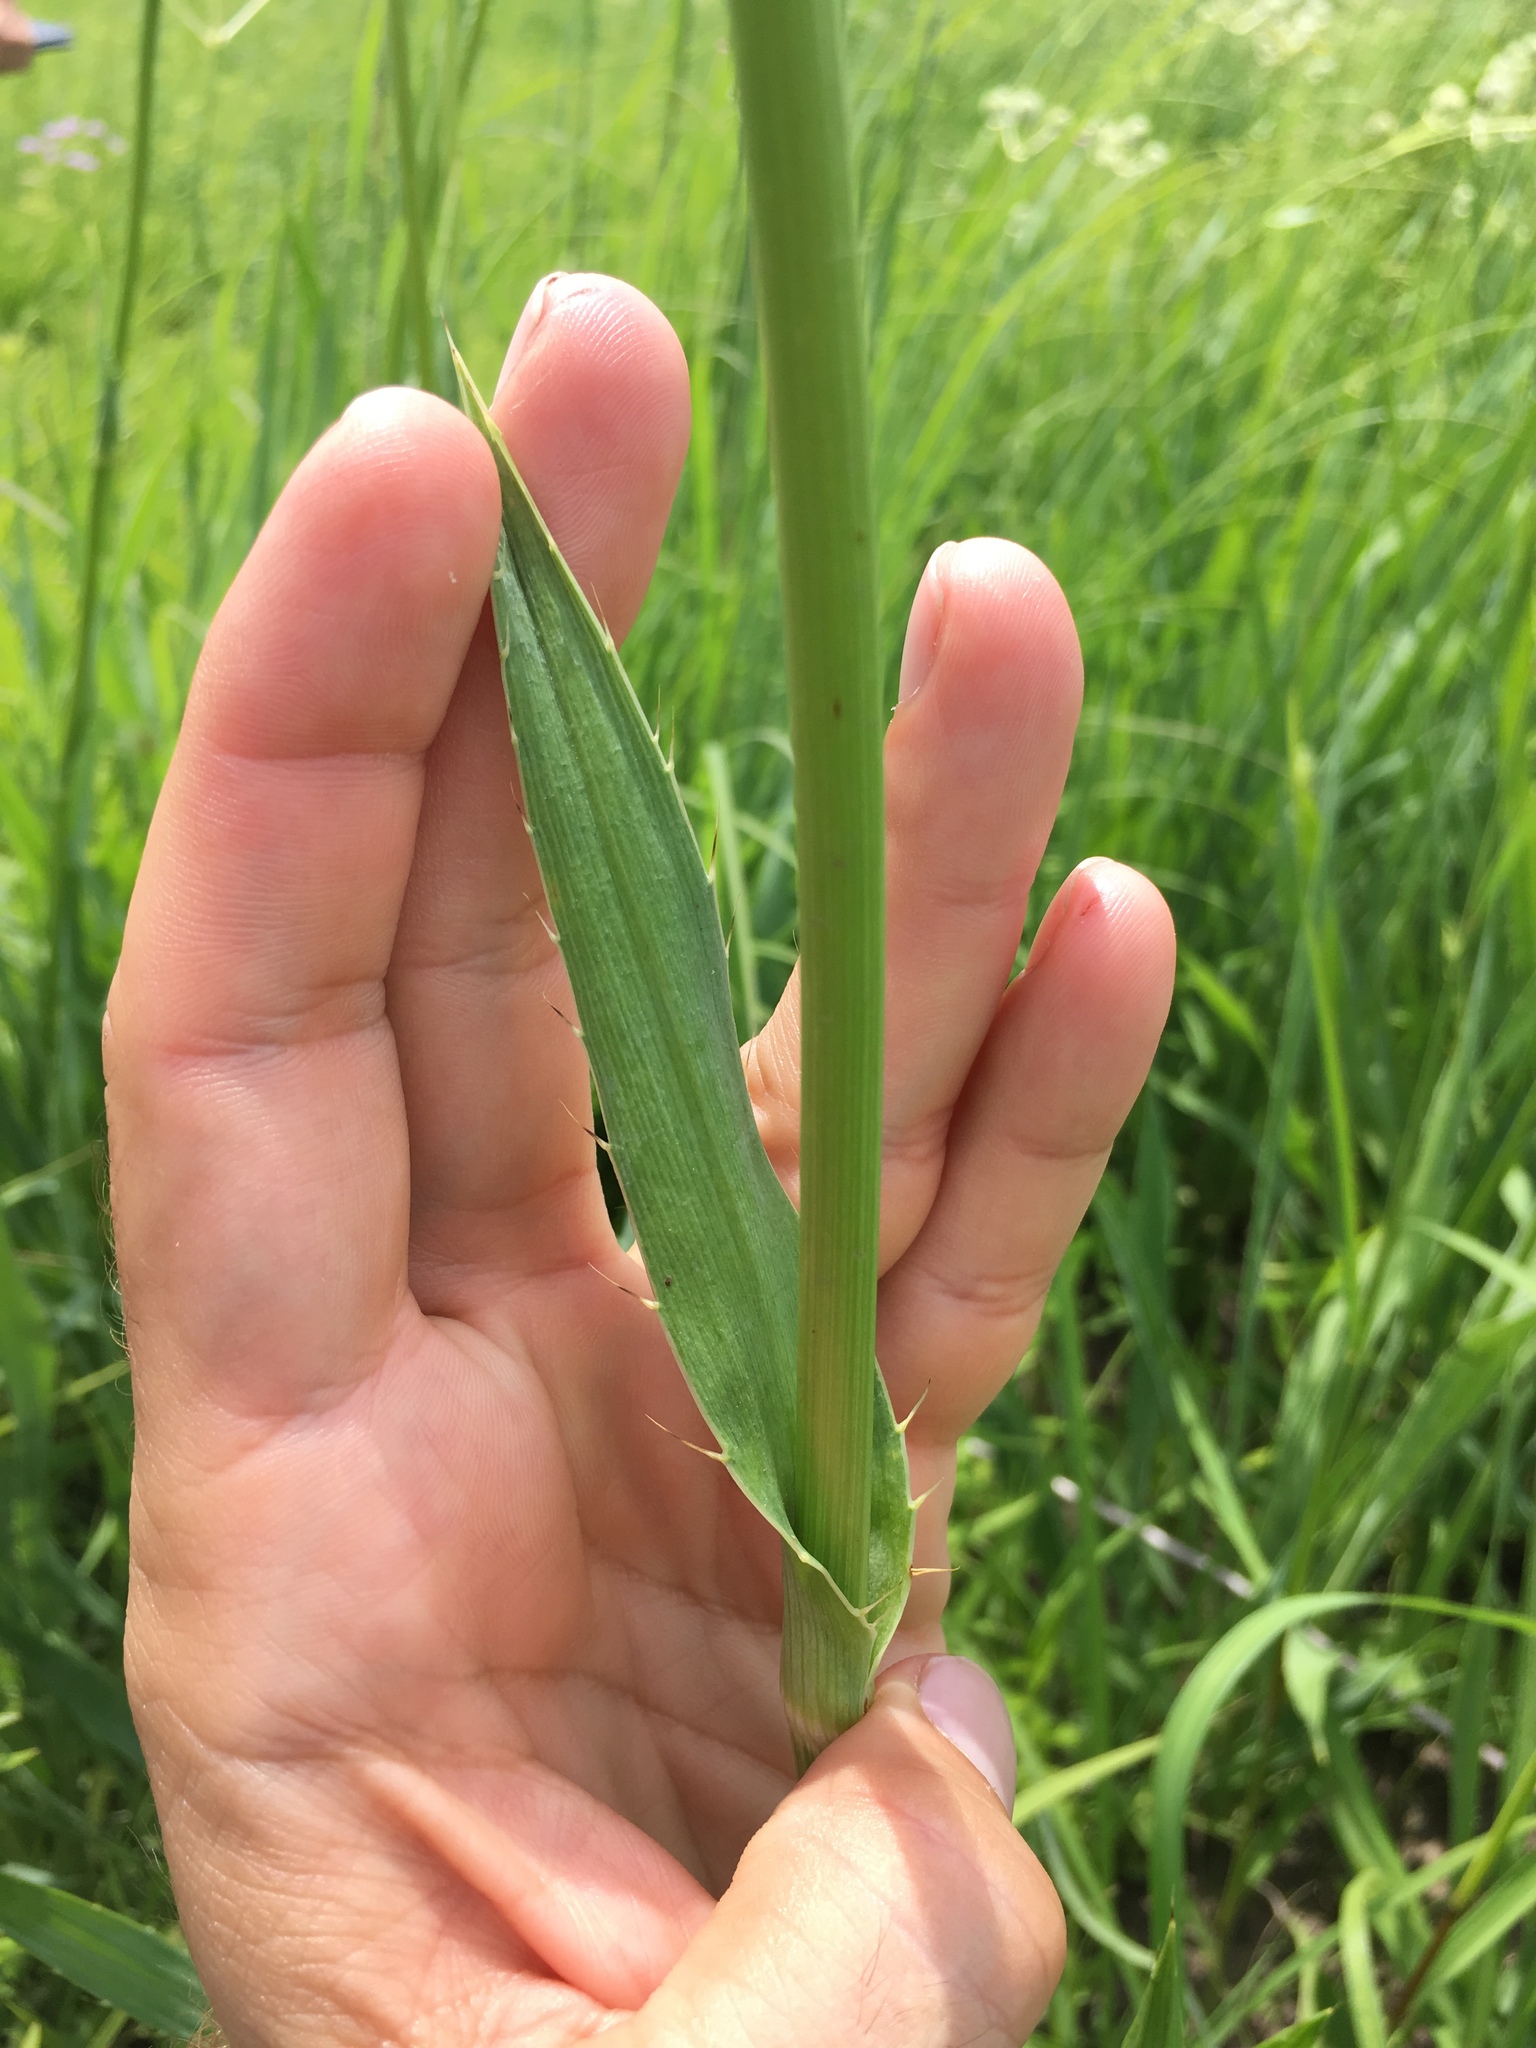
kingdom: Plantae
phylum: Tracheophyta
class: Magnoliopsida
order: Apiales
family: Apiaceae
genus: Eryngium
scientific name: Eryngium yuccifolium
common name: Button eryngo
